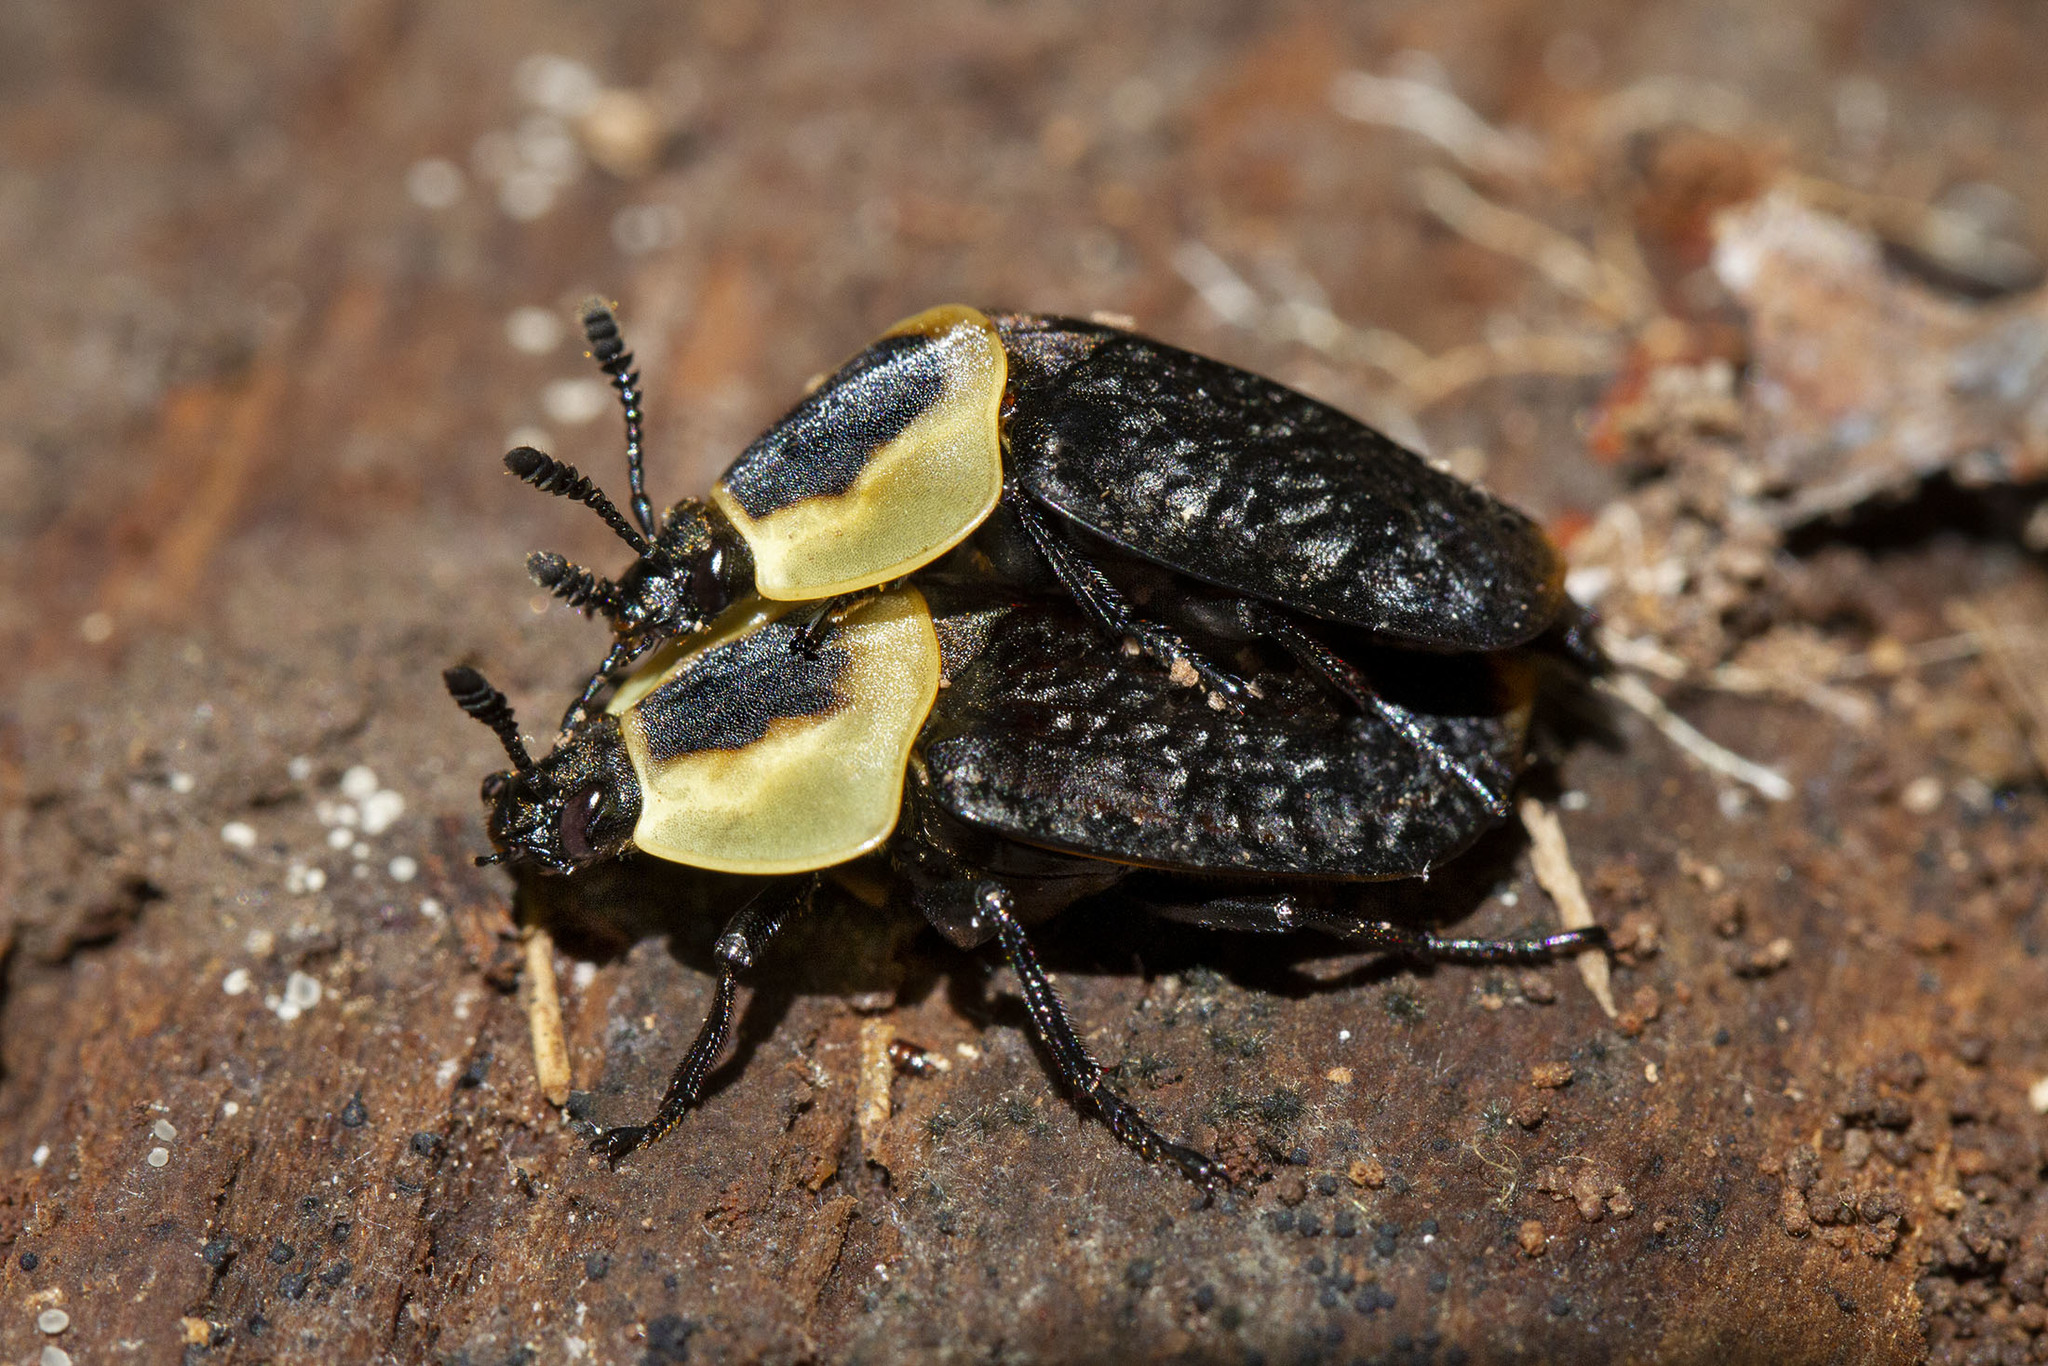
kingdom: Animalia
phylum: Arthropoda
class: Insecta
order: Coleoptera
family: Staphylinidae
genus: Necrophila
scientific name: Necrophila americana
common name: American carrion beetle
